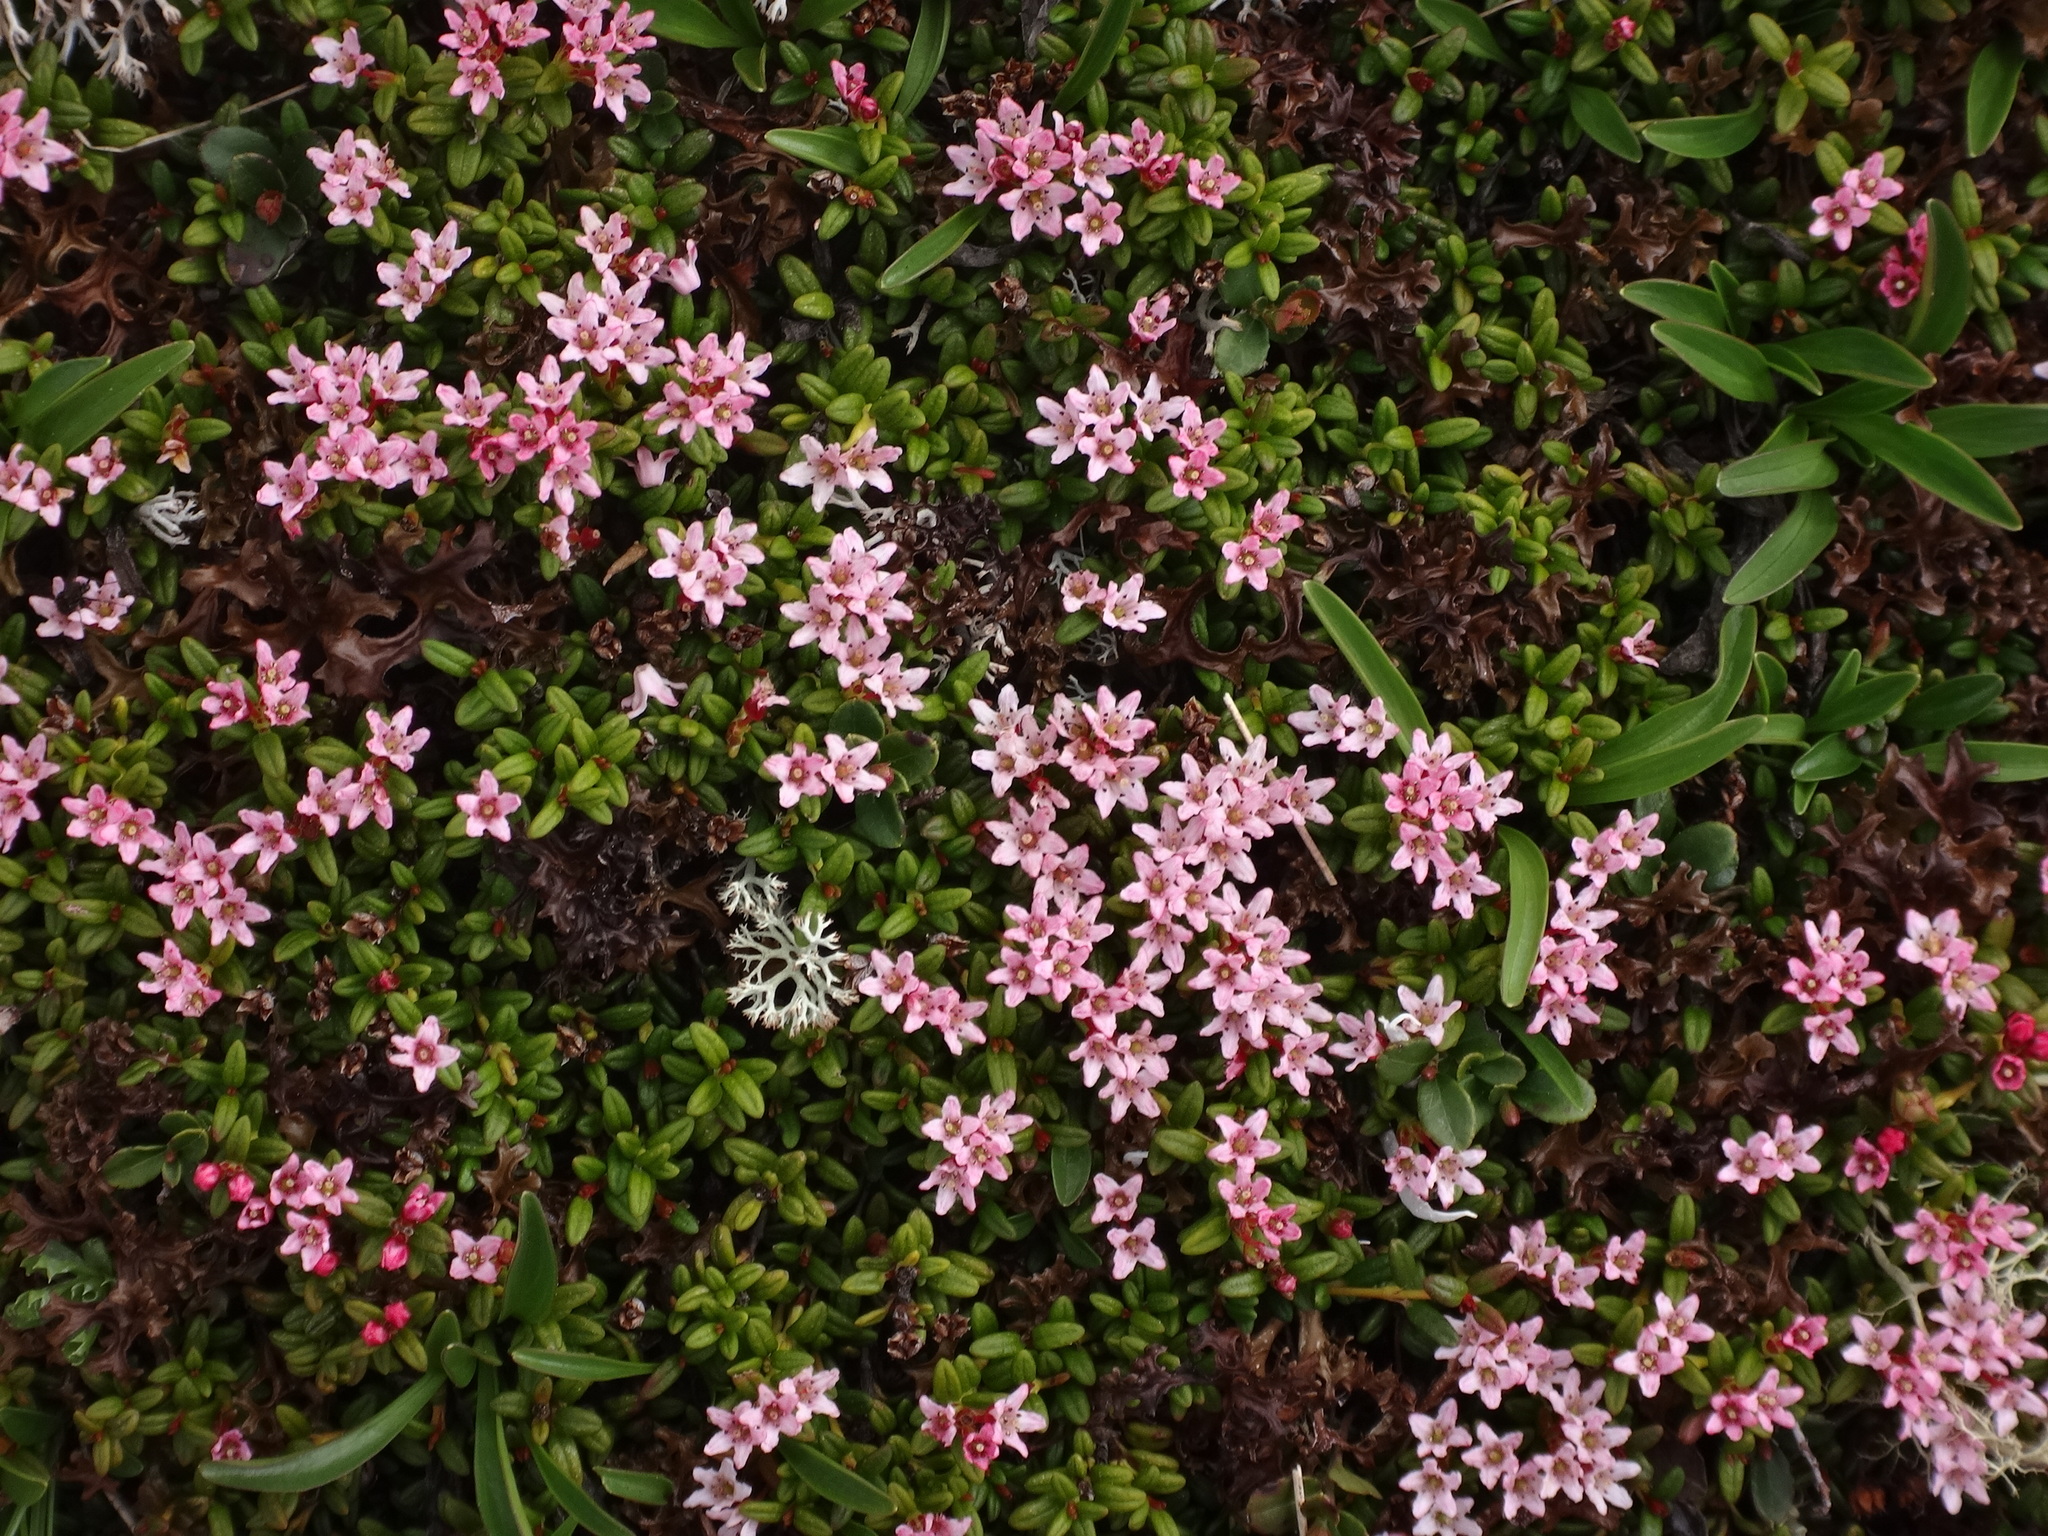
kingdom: Plantae
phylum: Tracheophyta
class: Magnoliopsida
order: Ericales
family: Ericaceae
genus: Kalmia
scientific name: Kalmia procumbens
